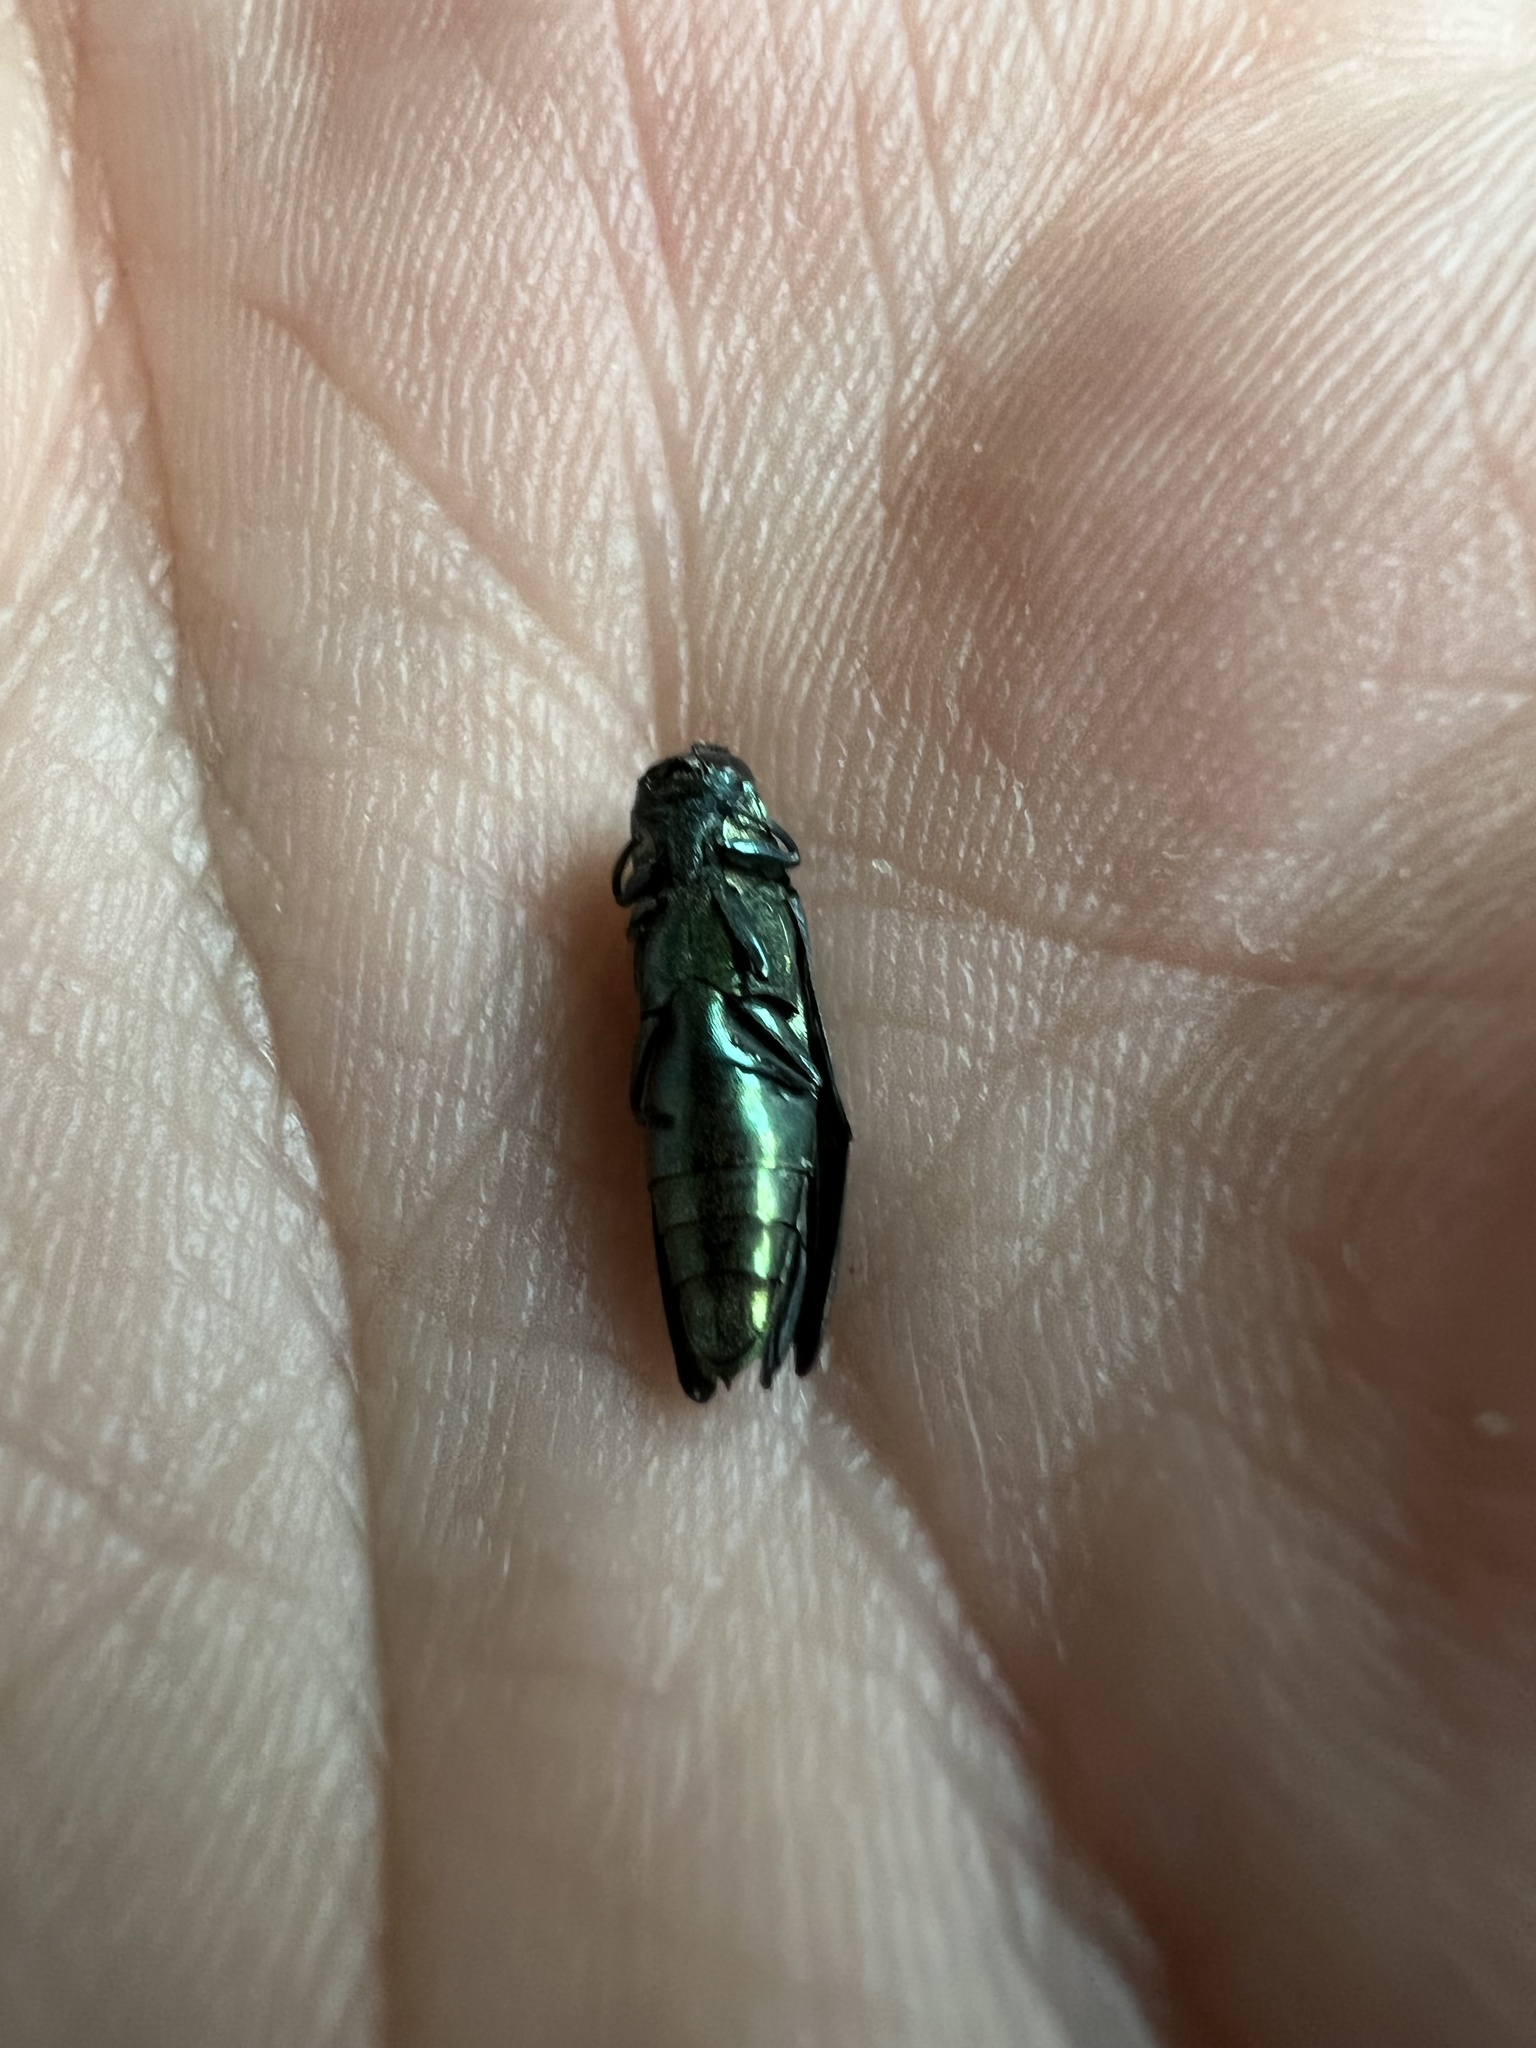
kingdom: Animalia
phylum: Arthropoda
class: Insecta
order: Coleoptera
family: Buprestidae
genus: Agrilus
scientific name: Agrilus planipennis
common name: Emerald ash borer
